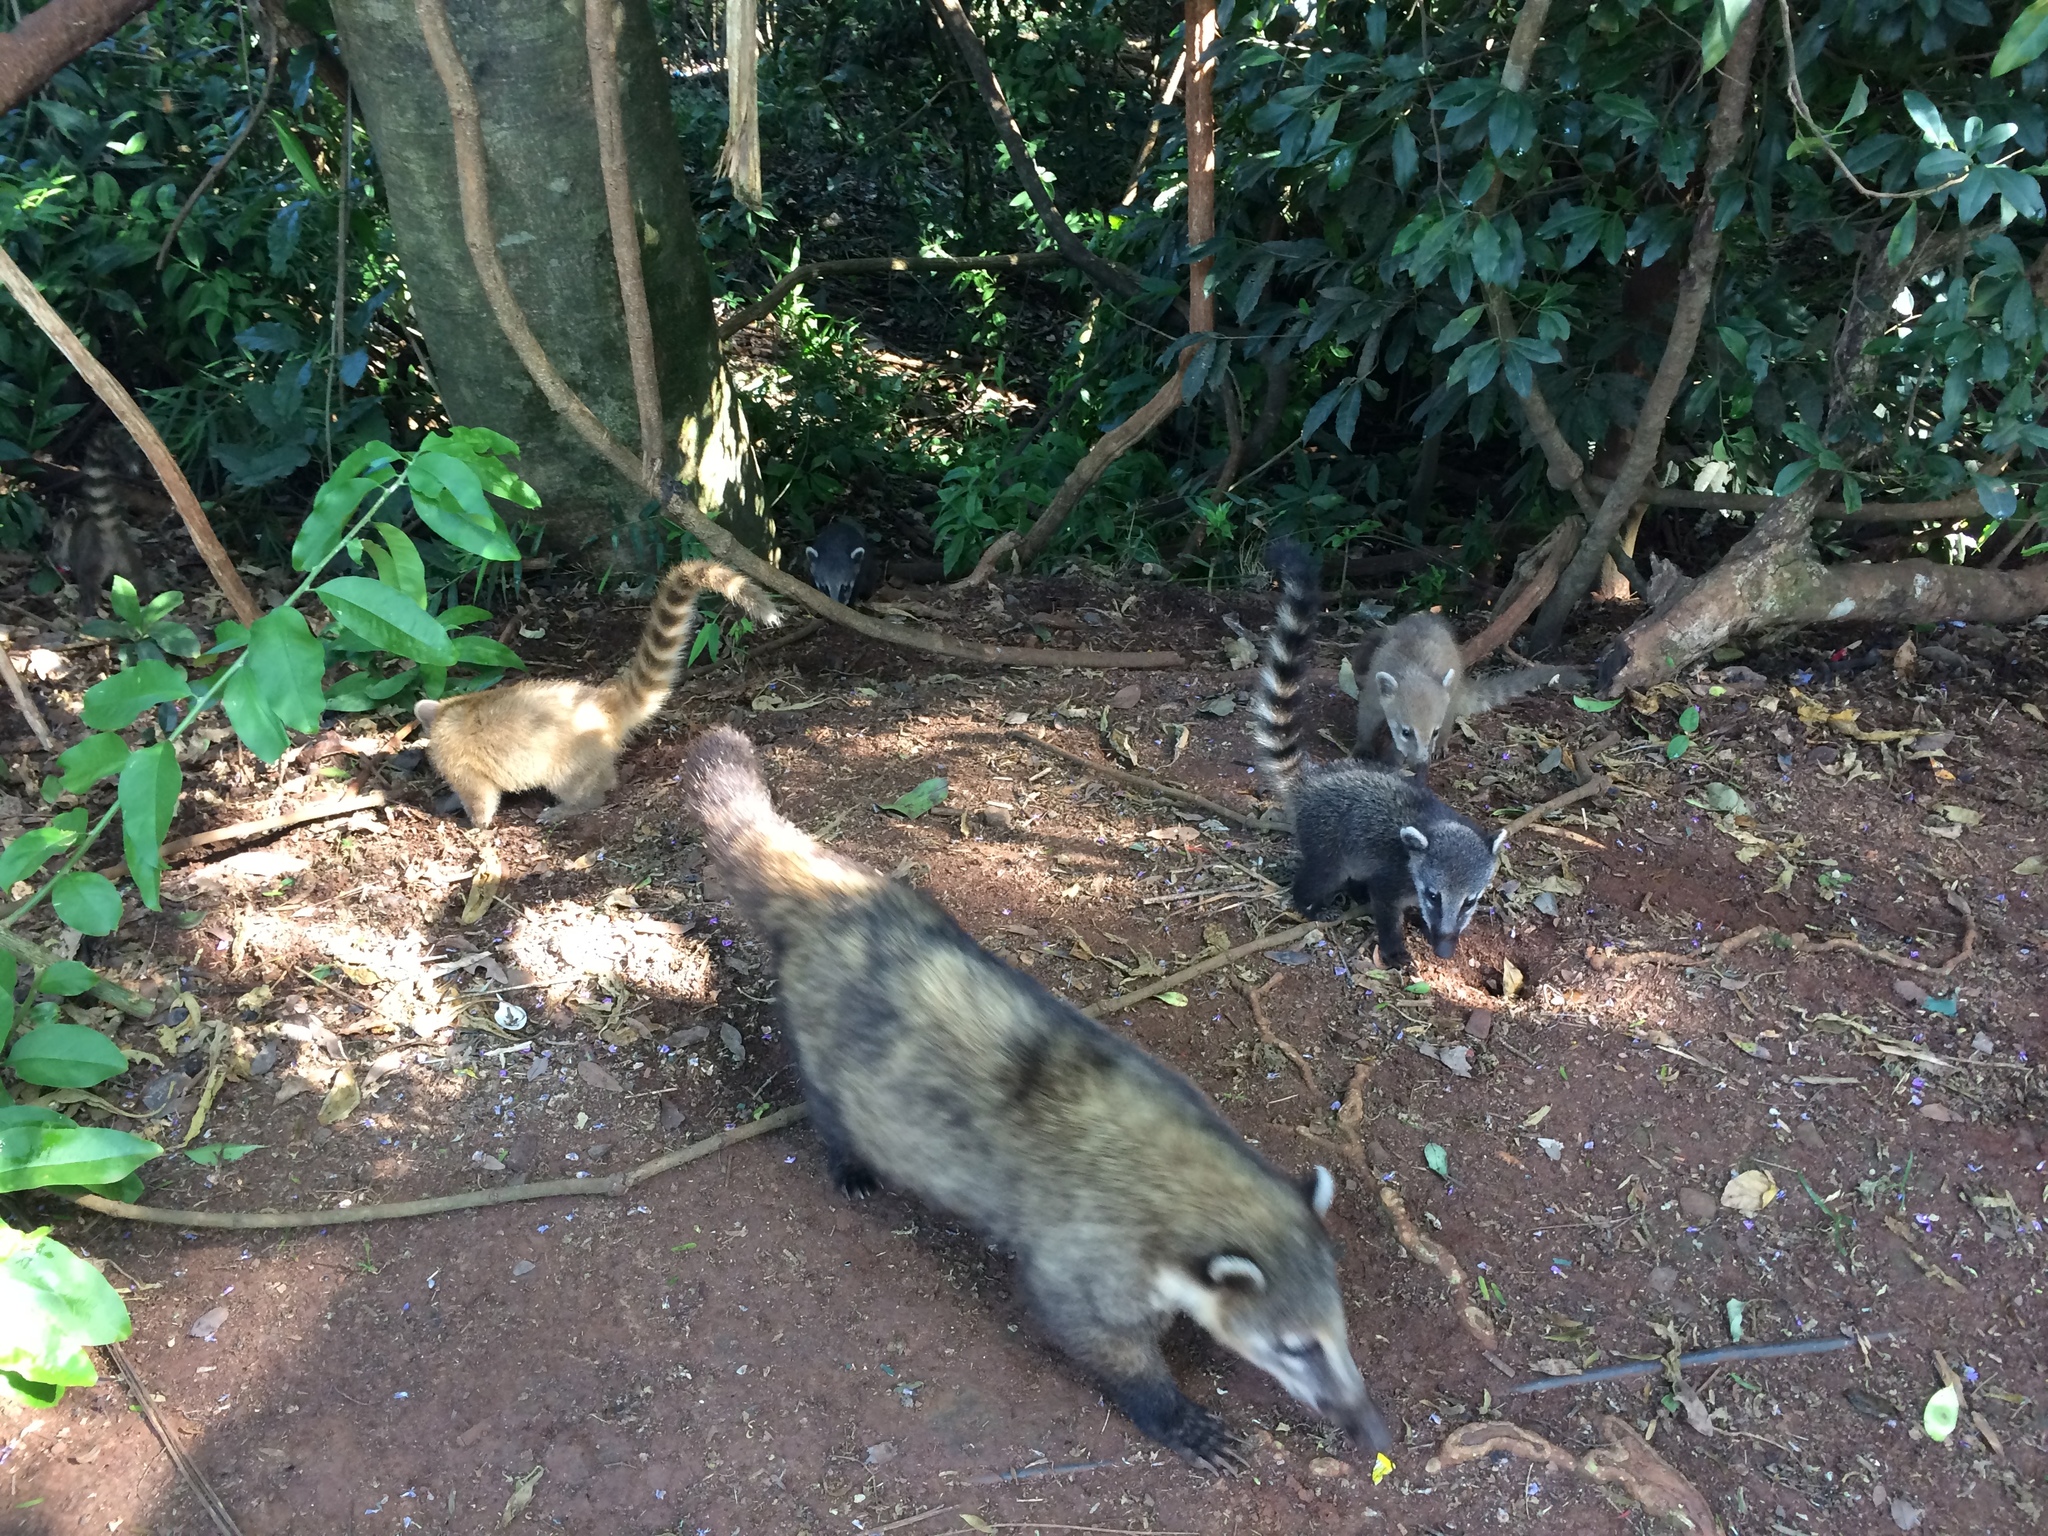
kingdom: Animalia
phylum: Chordata
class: Mammalia
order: Carnivora
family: Procyonidae
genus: Nasua
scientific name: Nasua nasua
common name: South american coati
